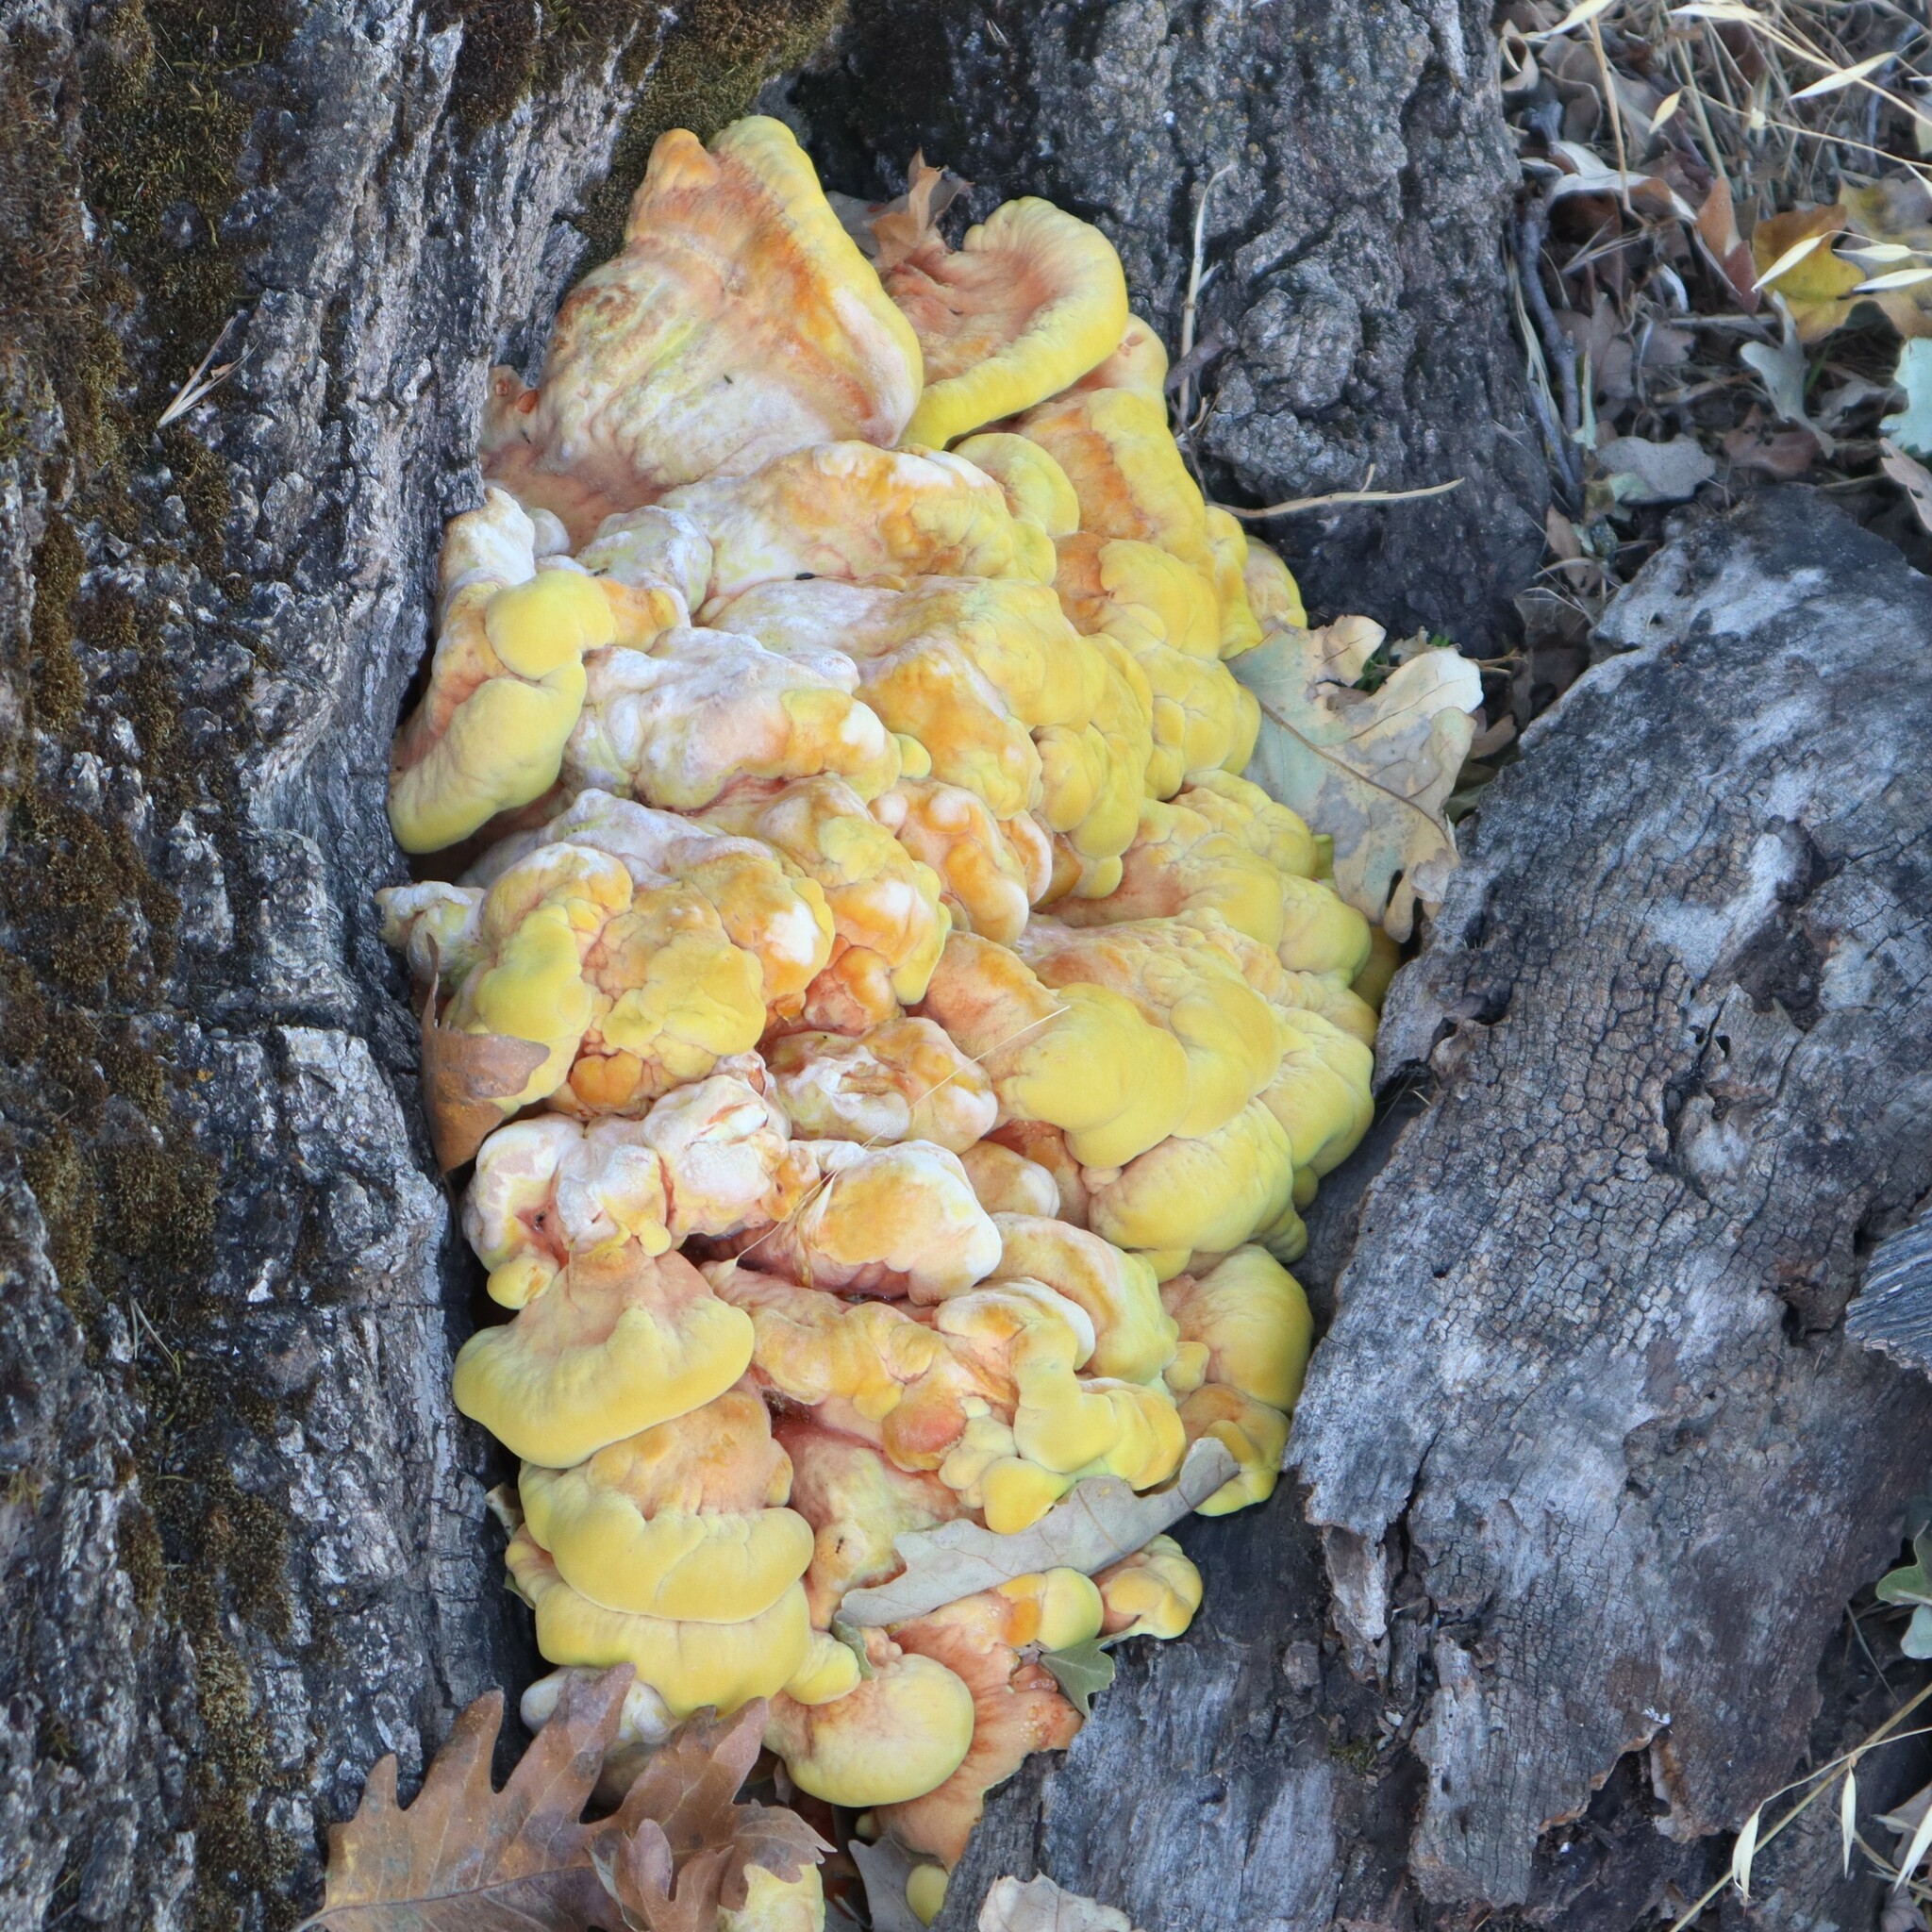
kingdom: Fungi
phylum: Basidiomycota
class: Agaricomycetes
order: Polyporales
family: Laetiporaceae
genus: Laetiporus
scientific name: Laetiporus gilbertsonii
